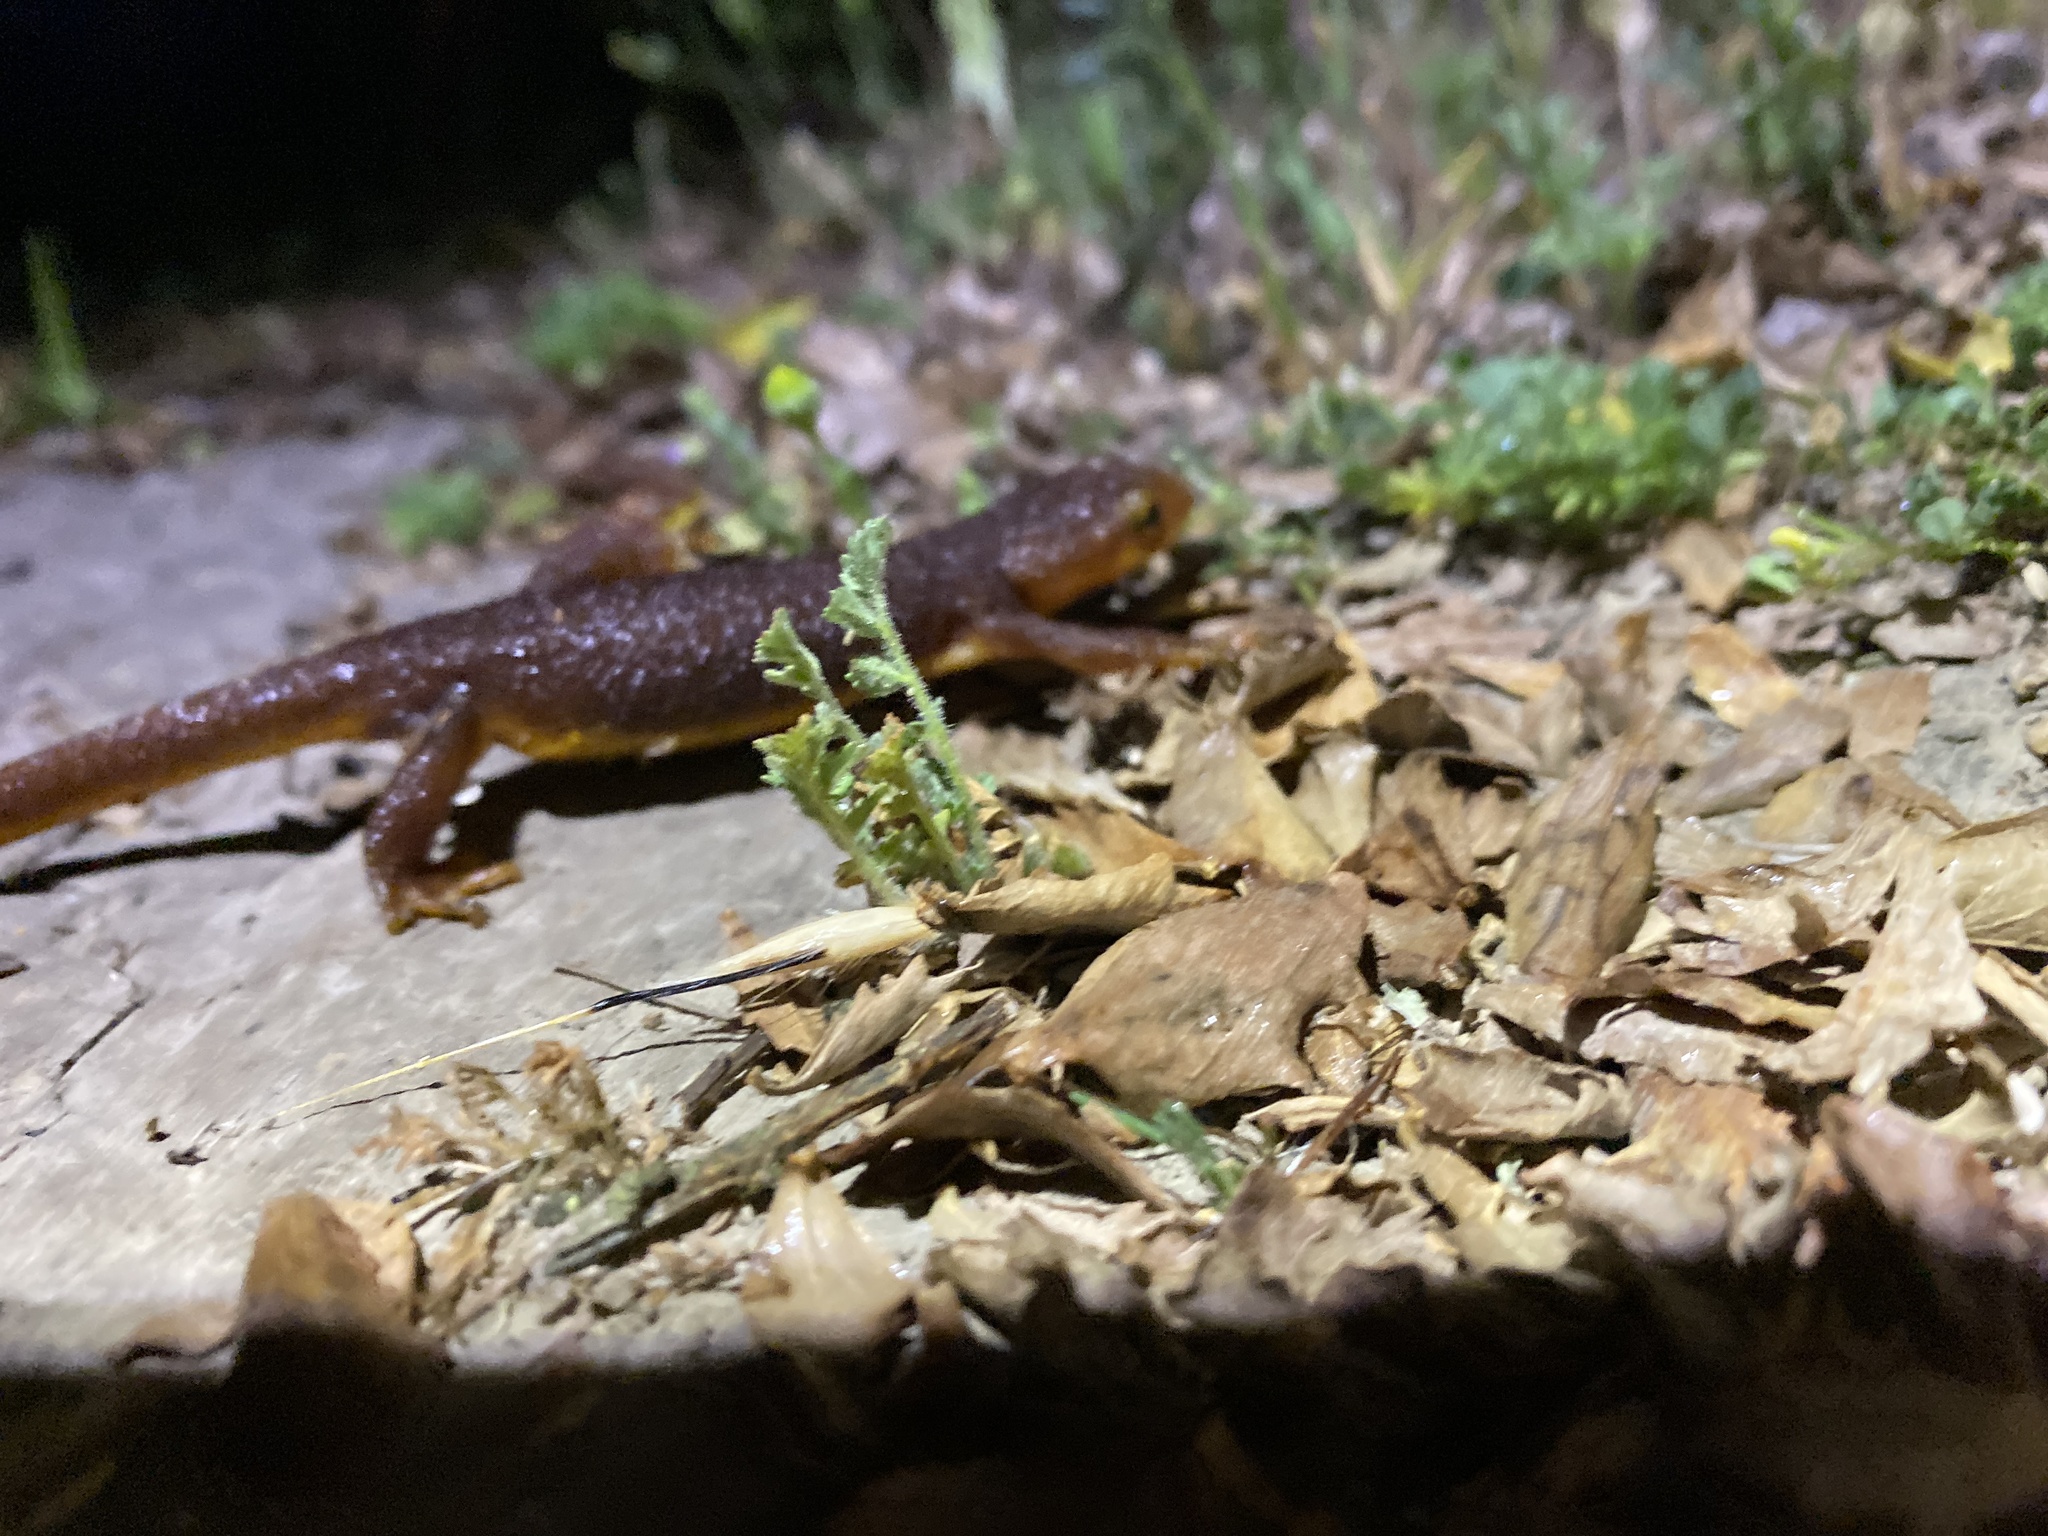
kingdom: Animalia
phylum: Chordata
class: Amphibia
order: Caudata
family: Salamandridae
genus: Taricha
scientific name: Taricha torosa
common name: California newt
